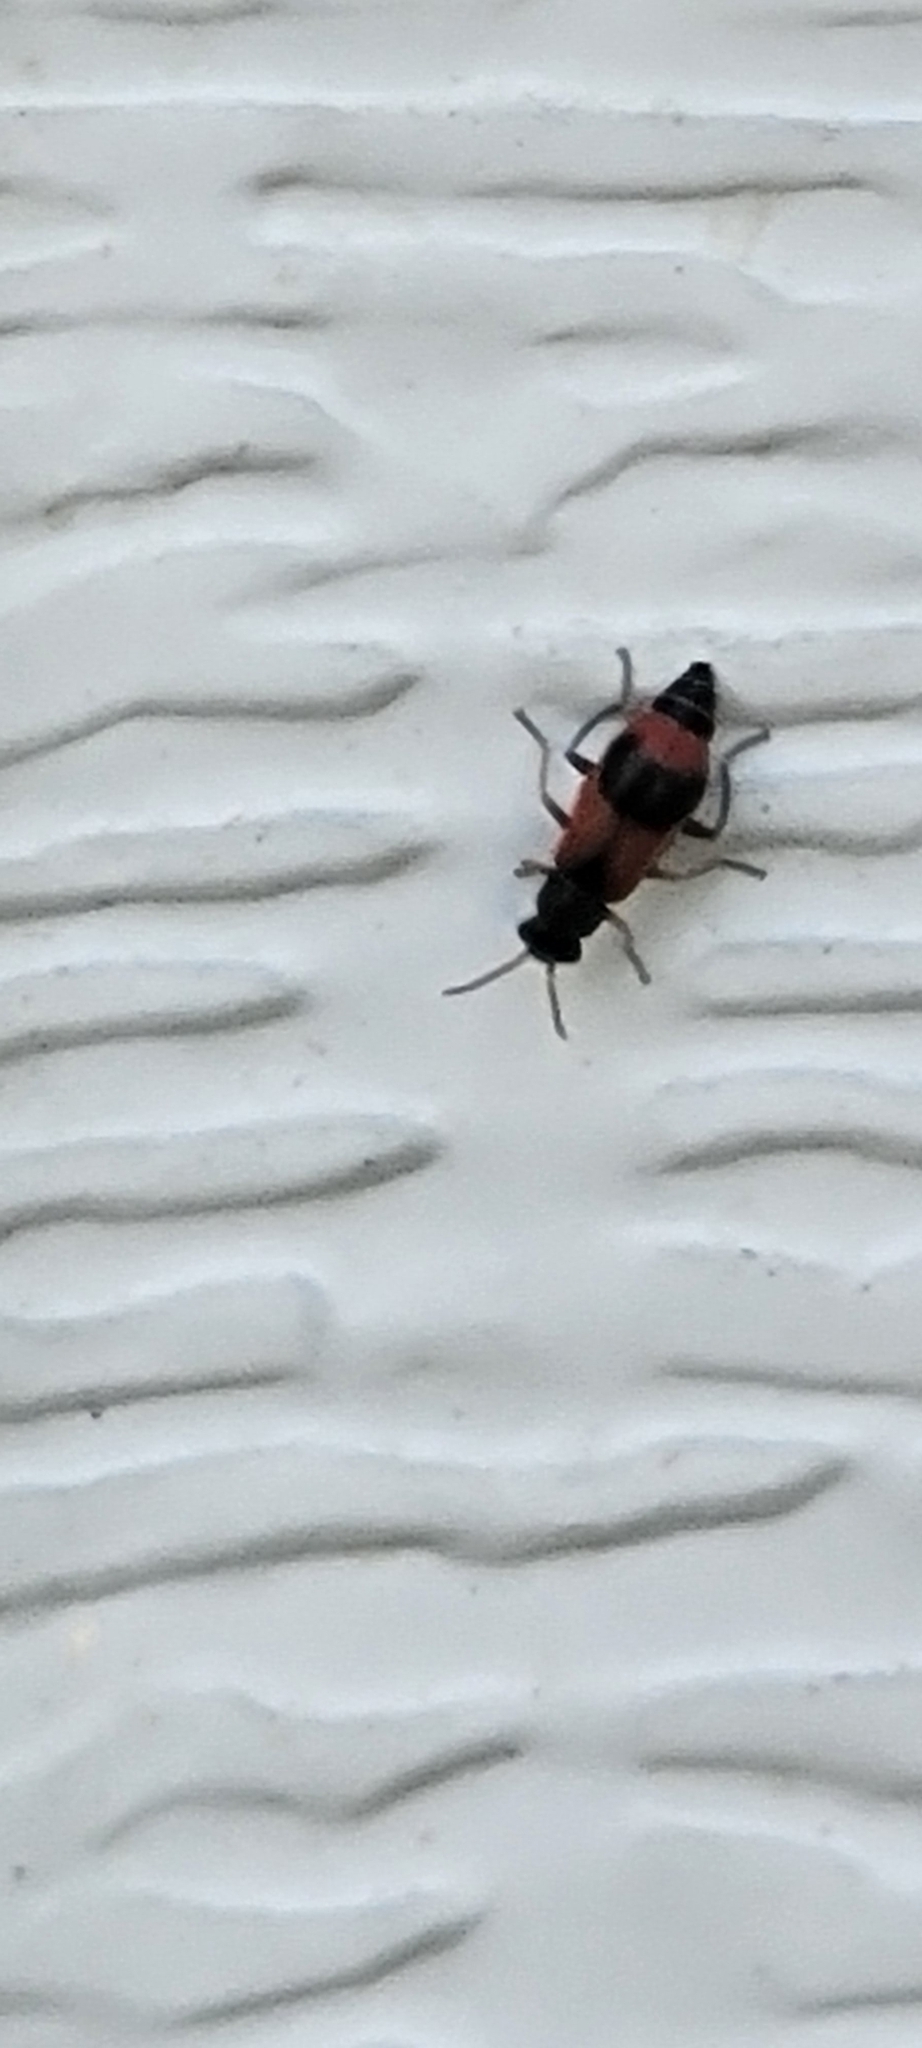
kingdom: Animalia
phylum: Arthropoda
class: Insecta
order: Coleoptera
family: Melyridae
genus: Anthocomus
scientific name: Anthocomus equestris
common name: Black-banded soft-winged flower beetle
